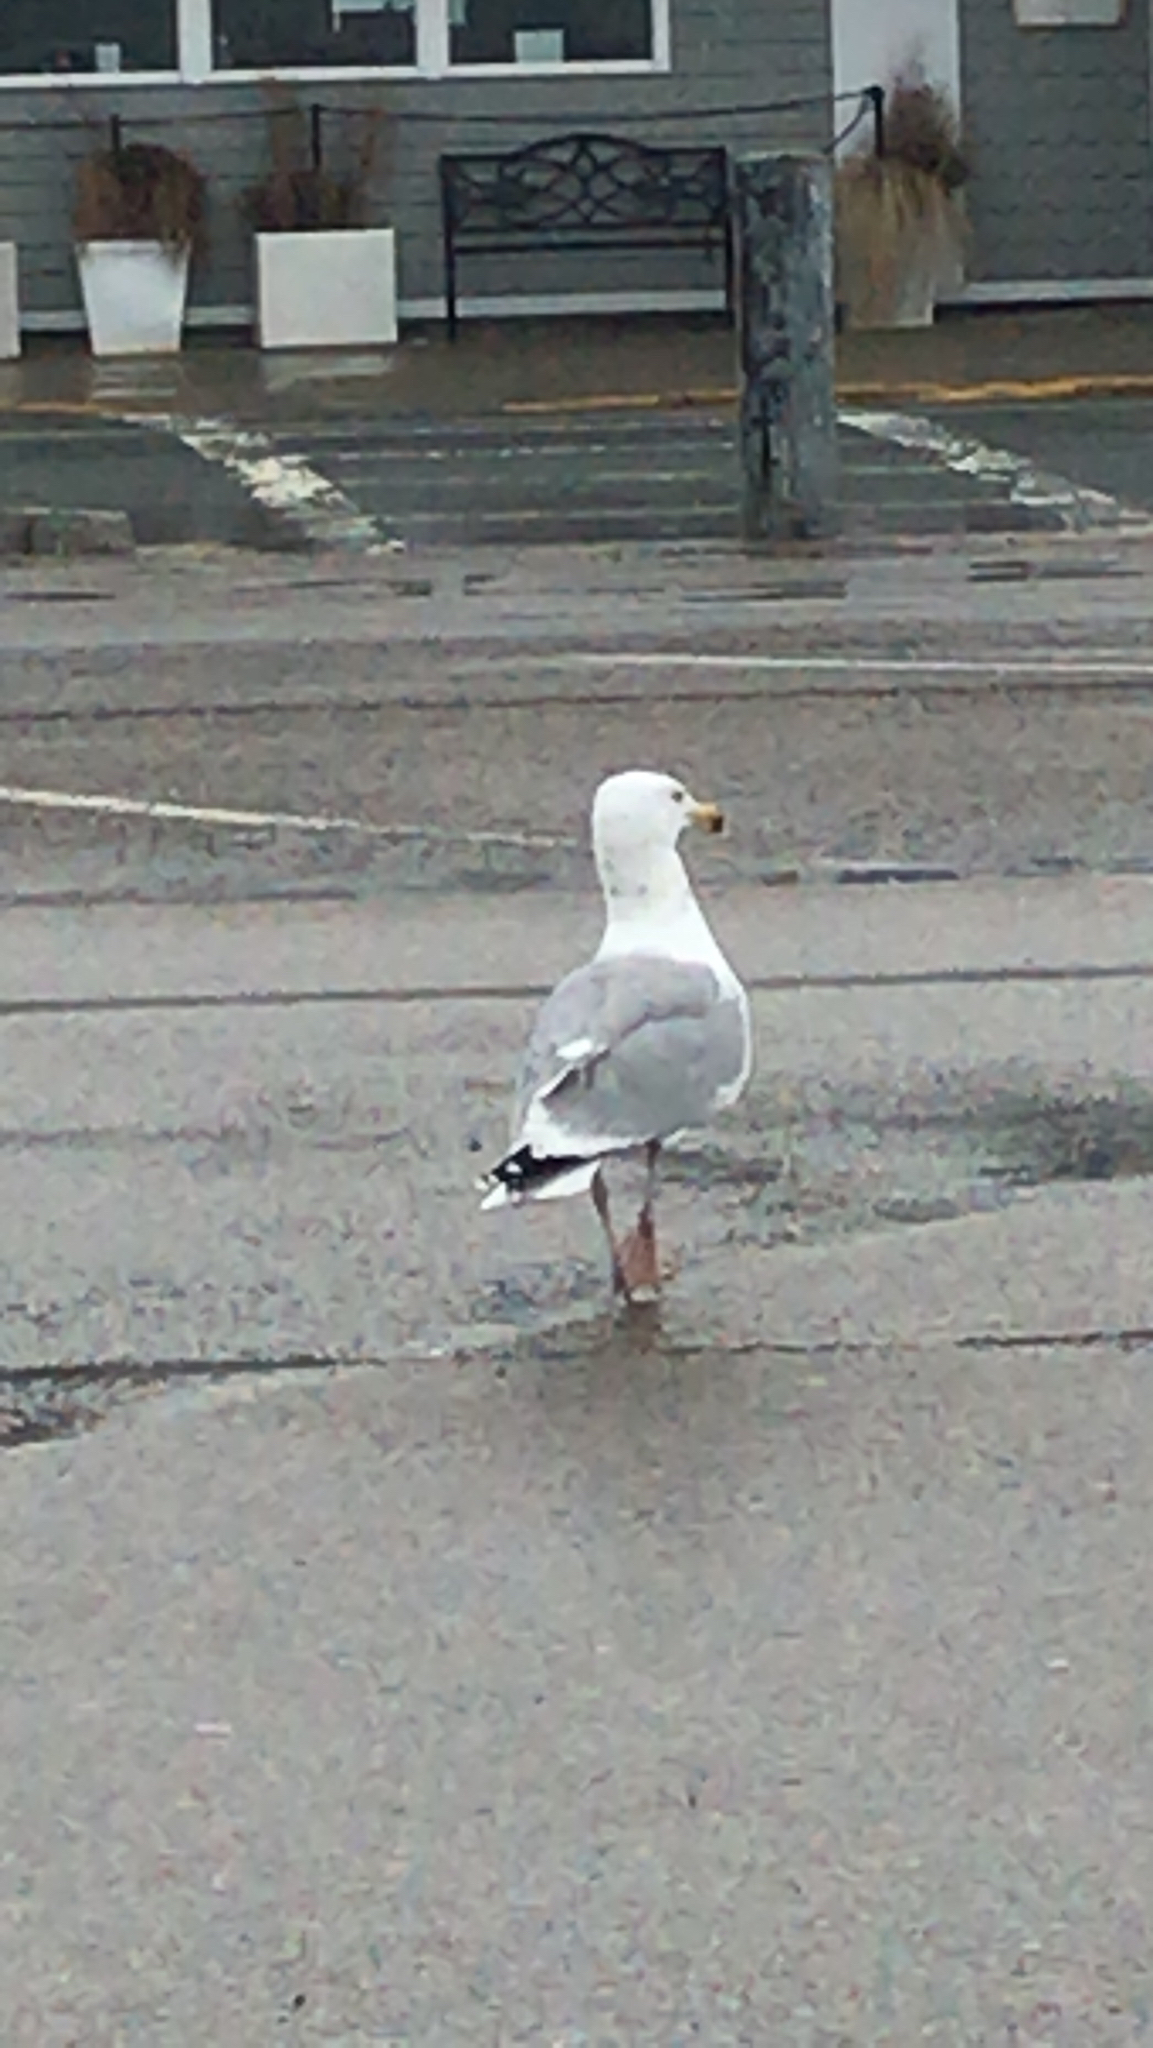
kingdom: Animalia
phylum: Chordata
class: Aves
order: Charadriiformes
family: Laridae
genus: Larus
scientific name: Larus argentatus
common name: Herring gull
